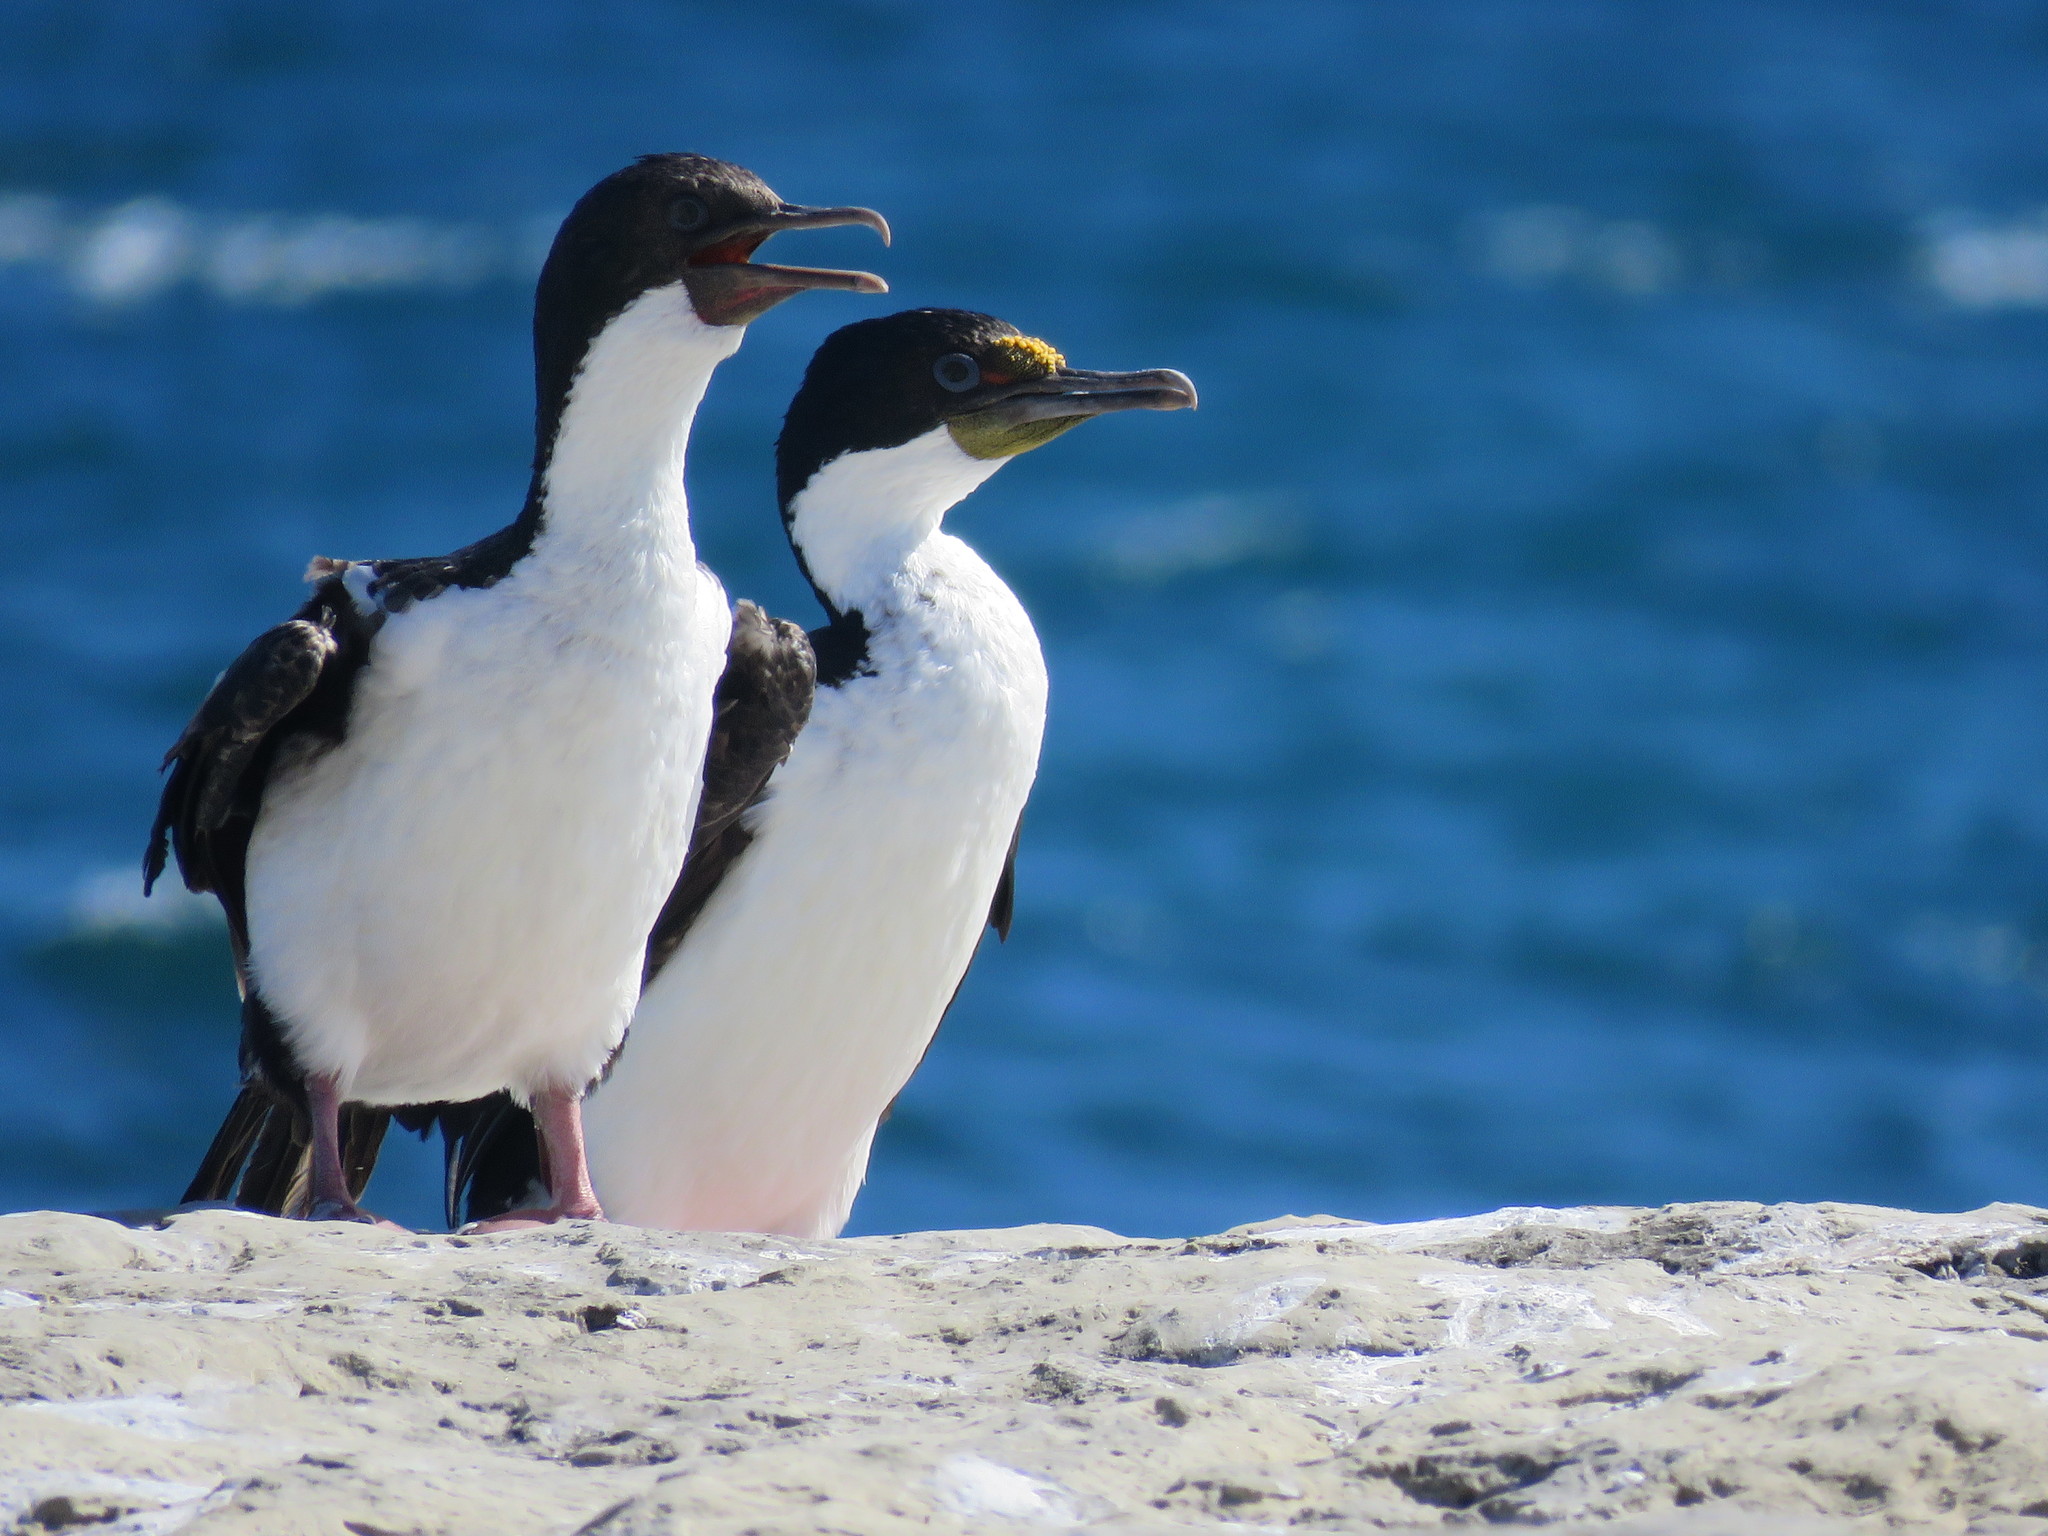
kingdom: Animalia
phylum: Chordata
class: Aves
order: Suliformes
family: Phalacrocoracidae
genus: Leucocarbo
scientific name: Leucocarbo atriceps
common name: Imperial shag
